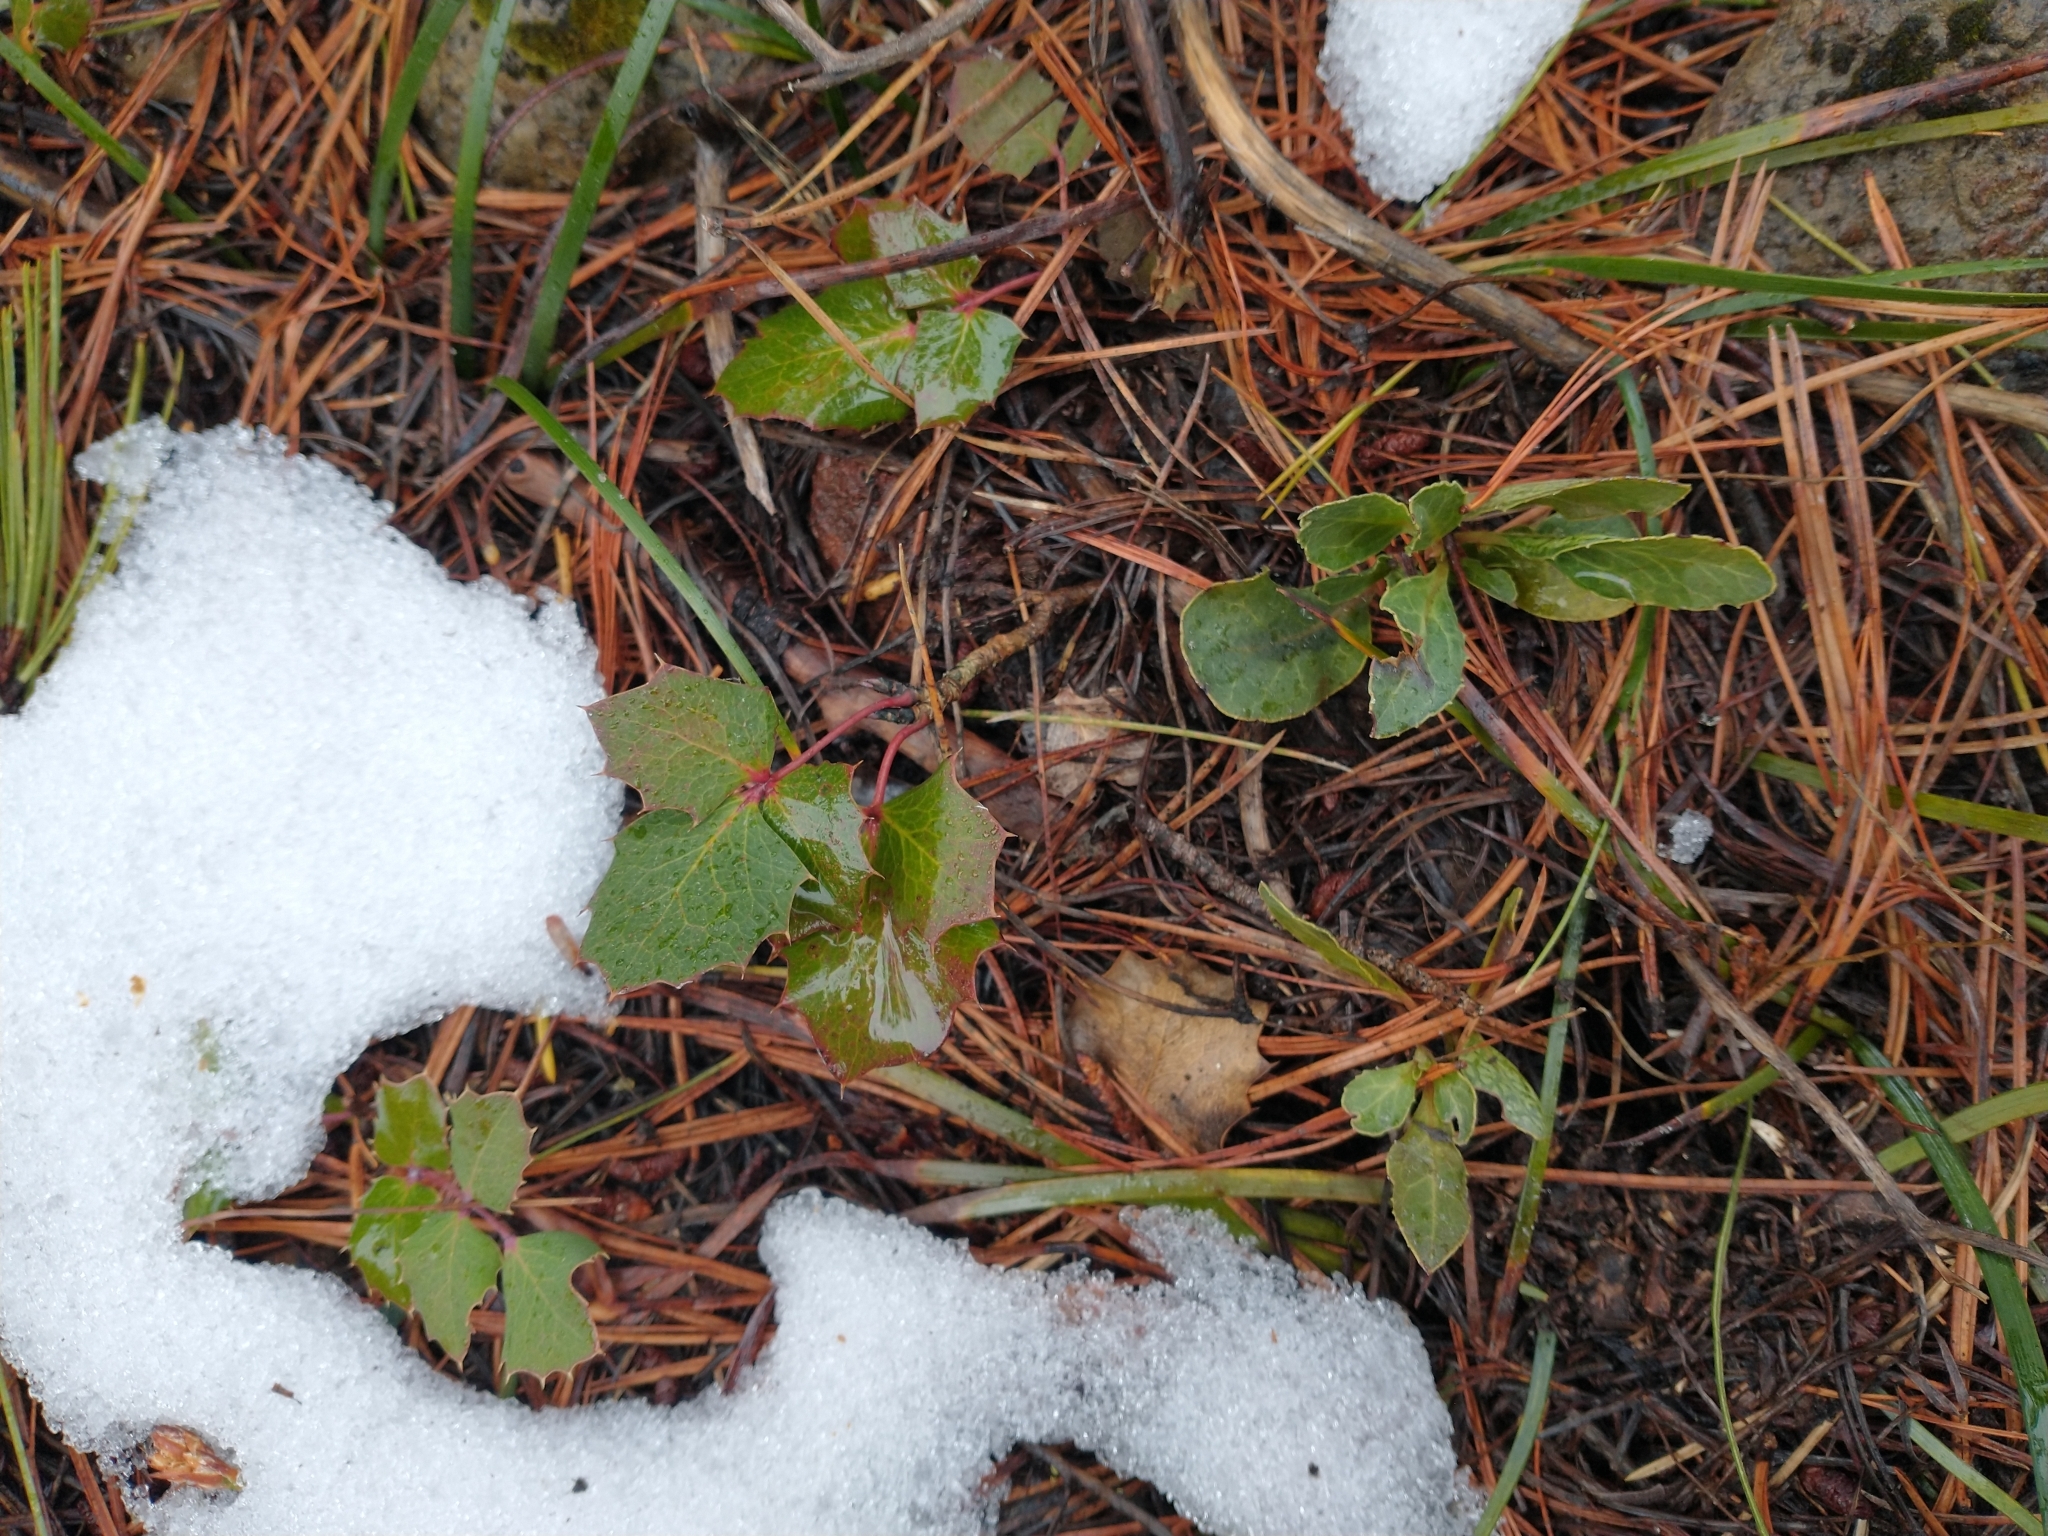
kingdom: Plantae
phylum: Tracheophyta
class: Magnoliopsida
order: Ranunculales
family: Berberidaceae
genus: Mahonia
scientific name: Mahonia repens
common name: Creeping oregon-grape
